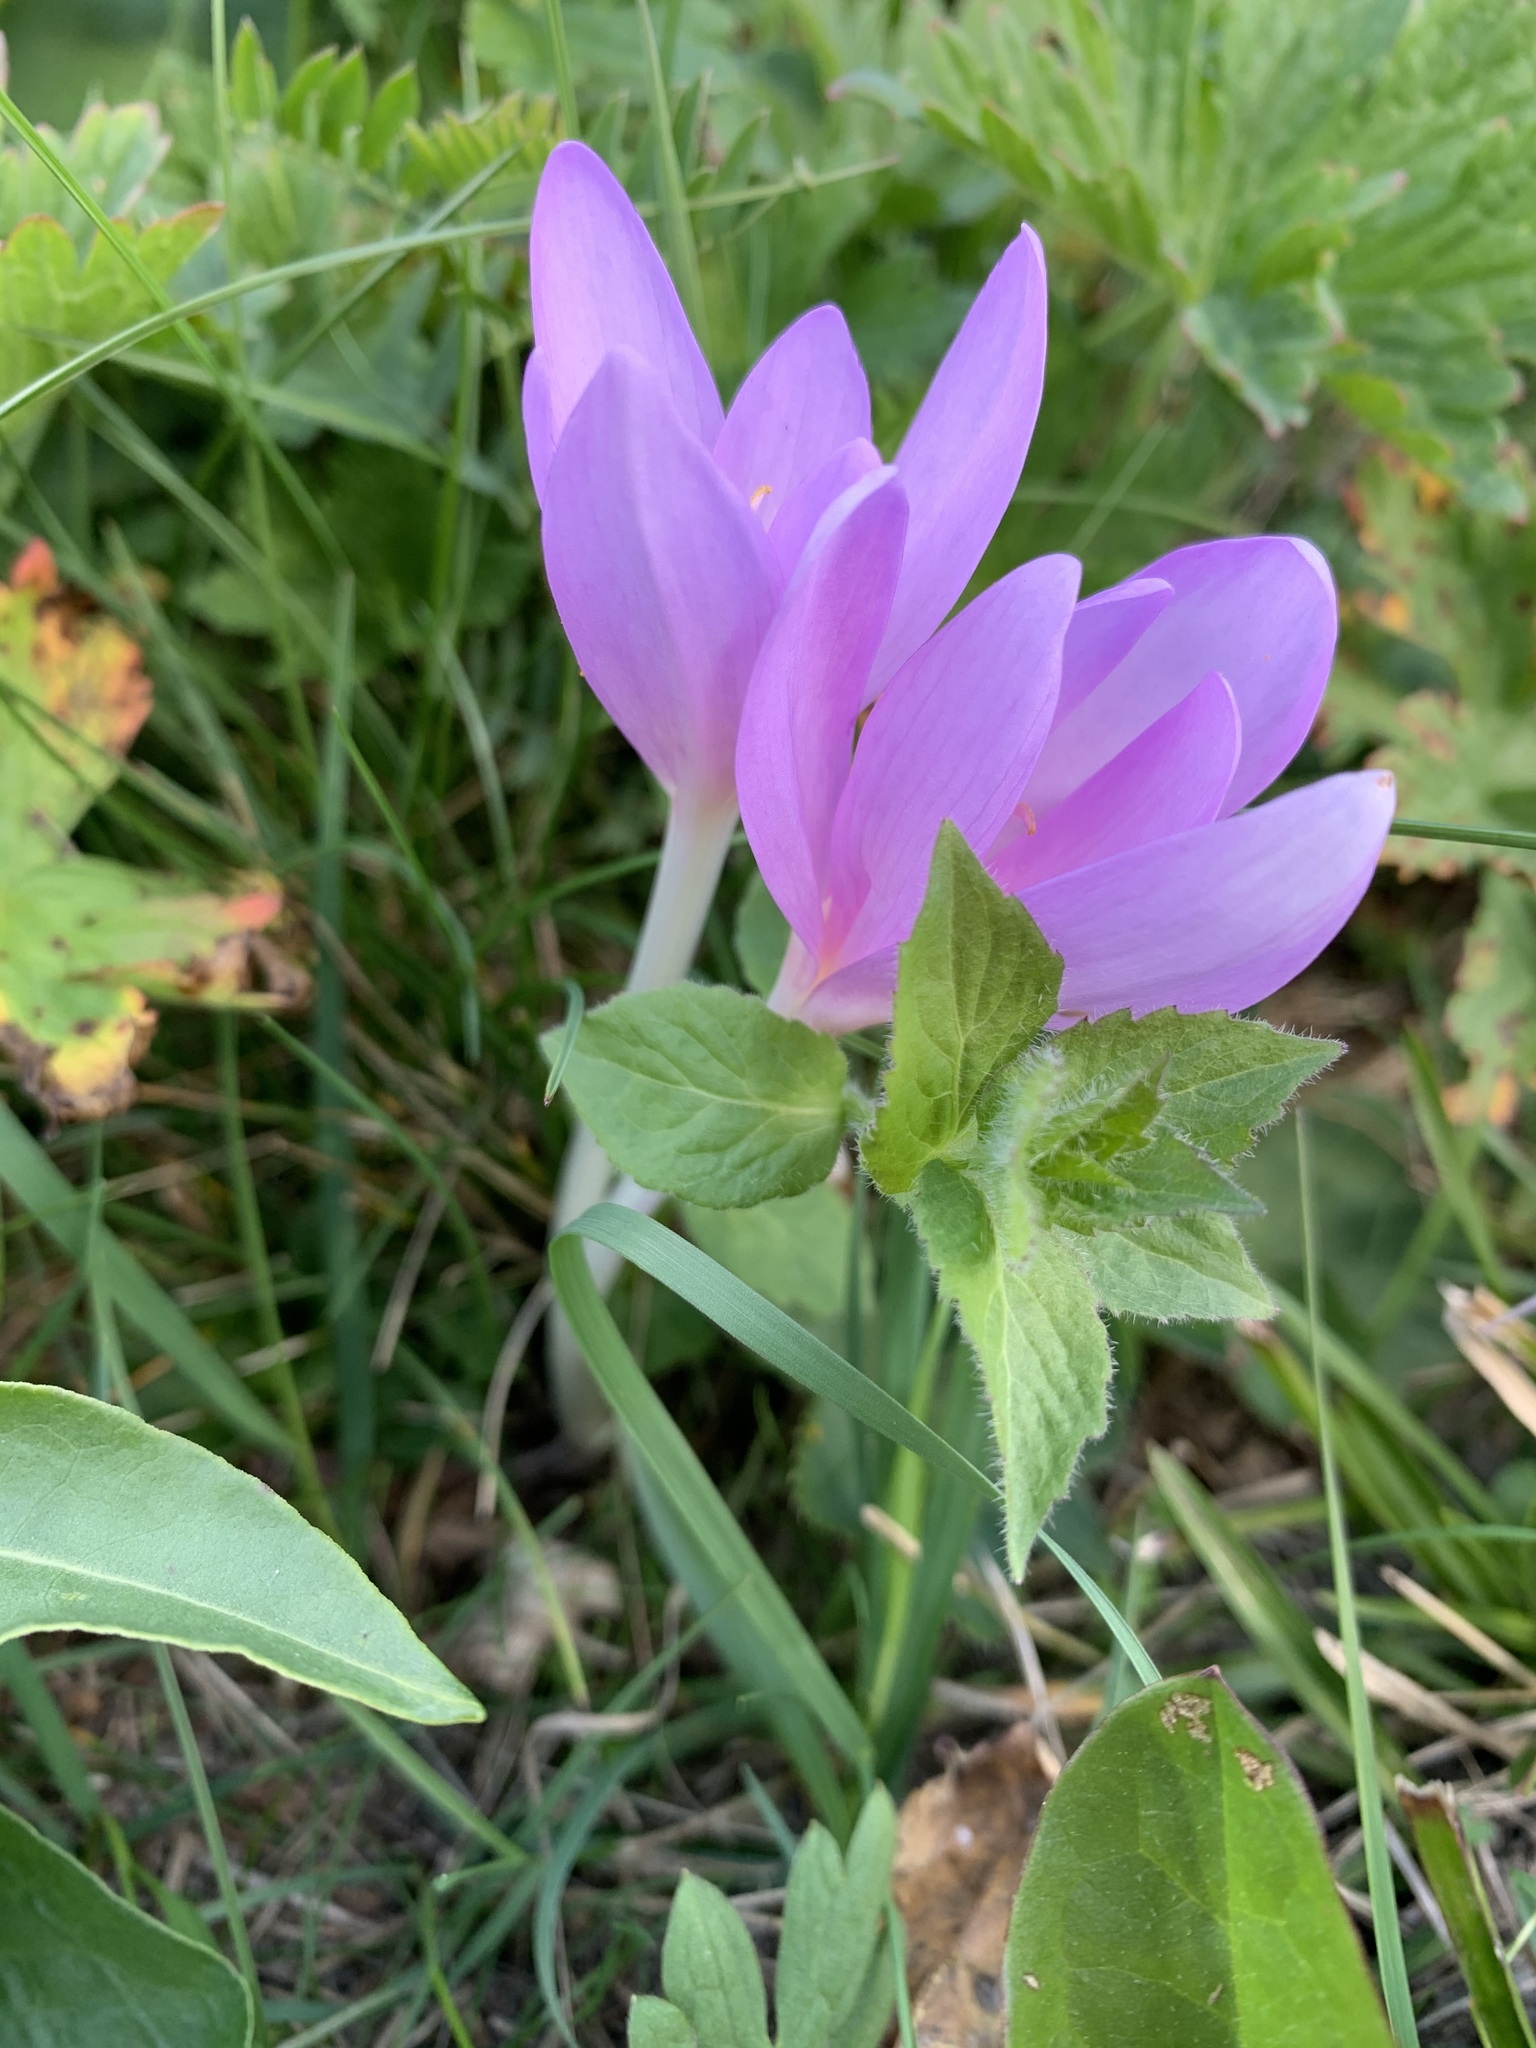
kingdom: Plantae
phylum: Tracheophyta
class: Liliopsida
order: Liliales
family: Colchicaceae
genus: Colchicum
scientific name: Colchicum autumnale
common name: Autumn crocus
